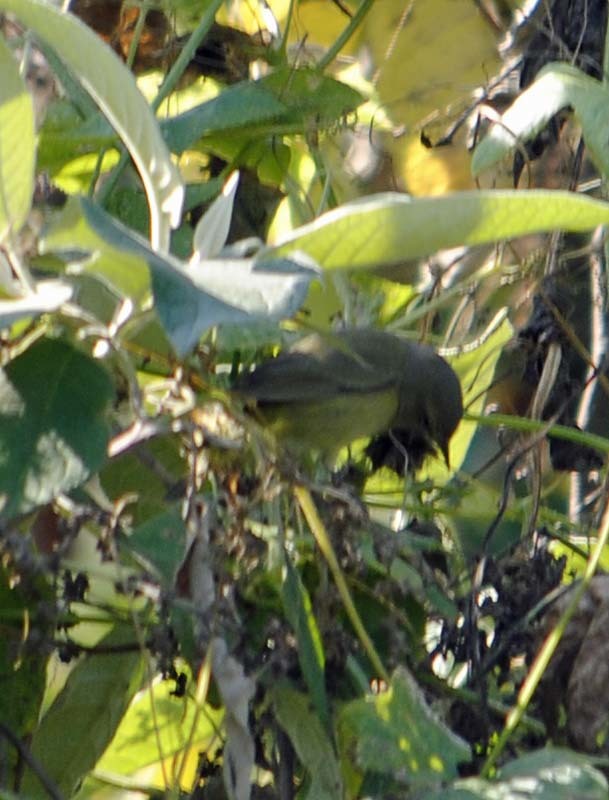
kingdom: Animalia
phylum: Chordata
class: Aves
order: Passeriformes
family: Parulidae
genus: Leiothlypis
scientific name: Leiothlypis celata
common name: Orange-crowned warbler
